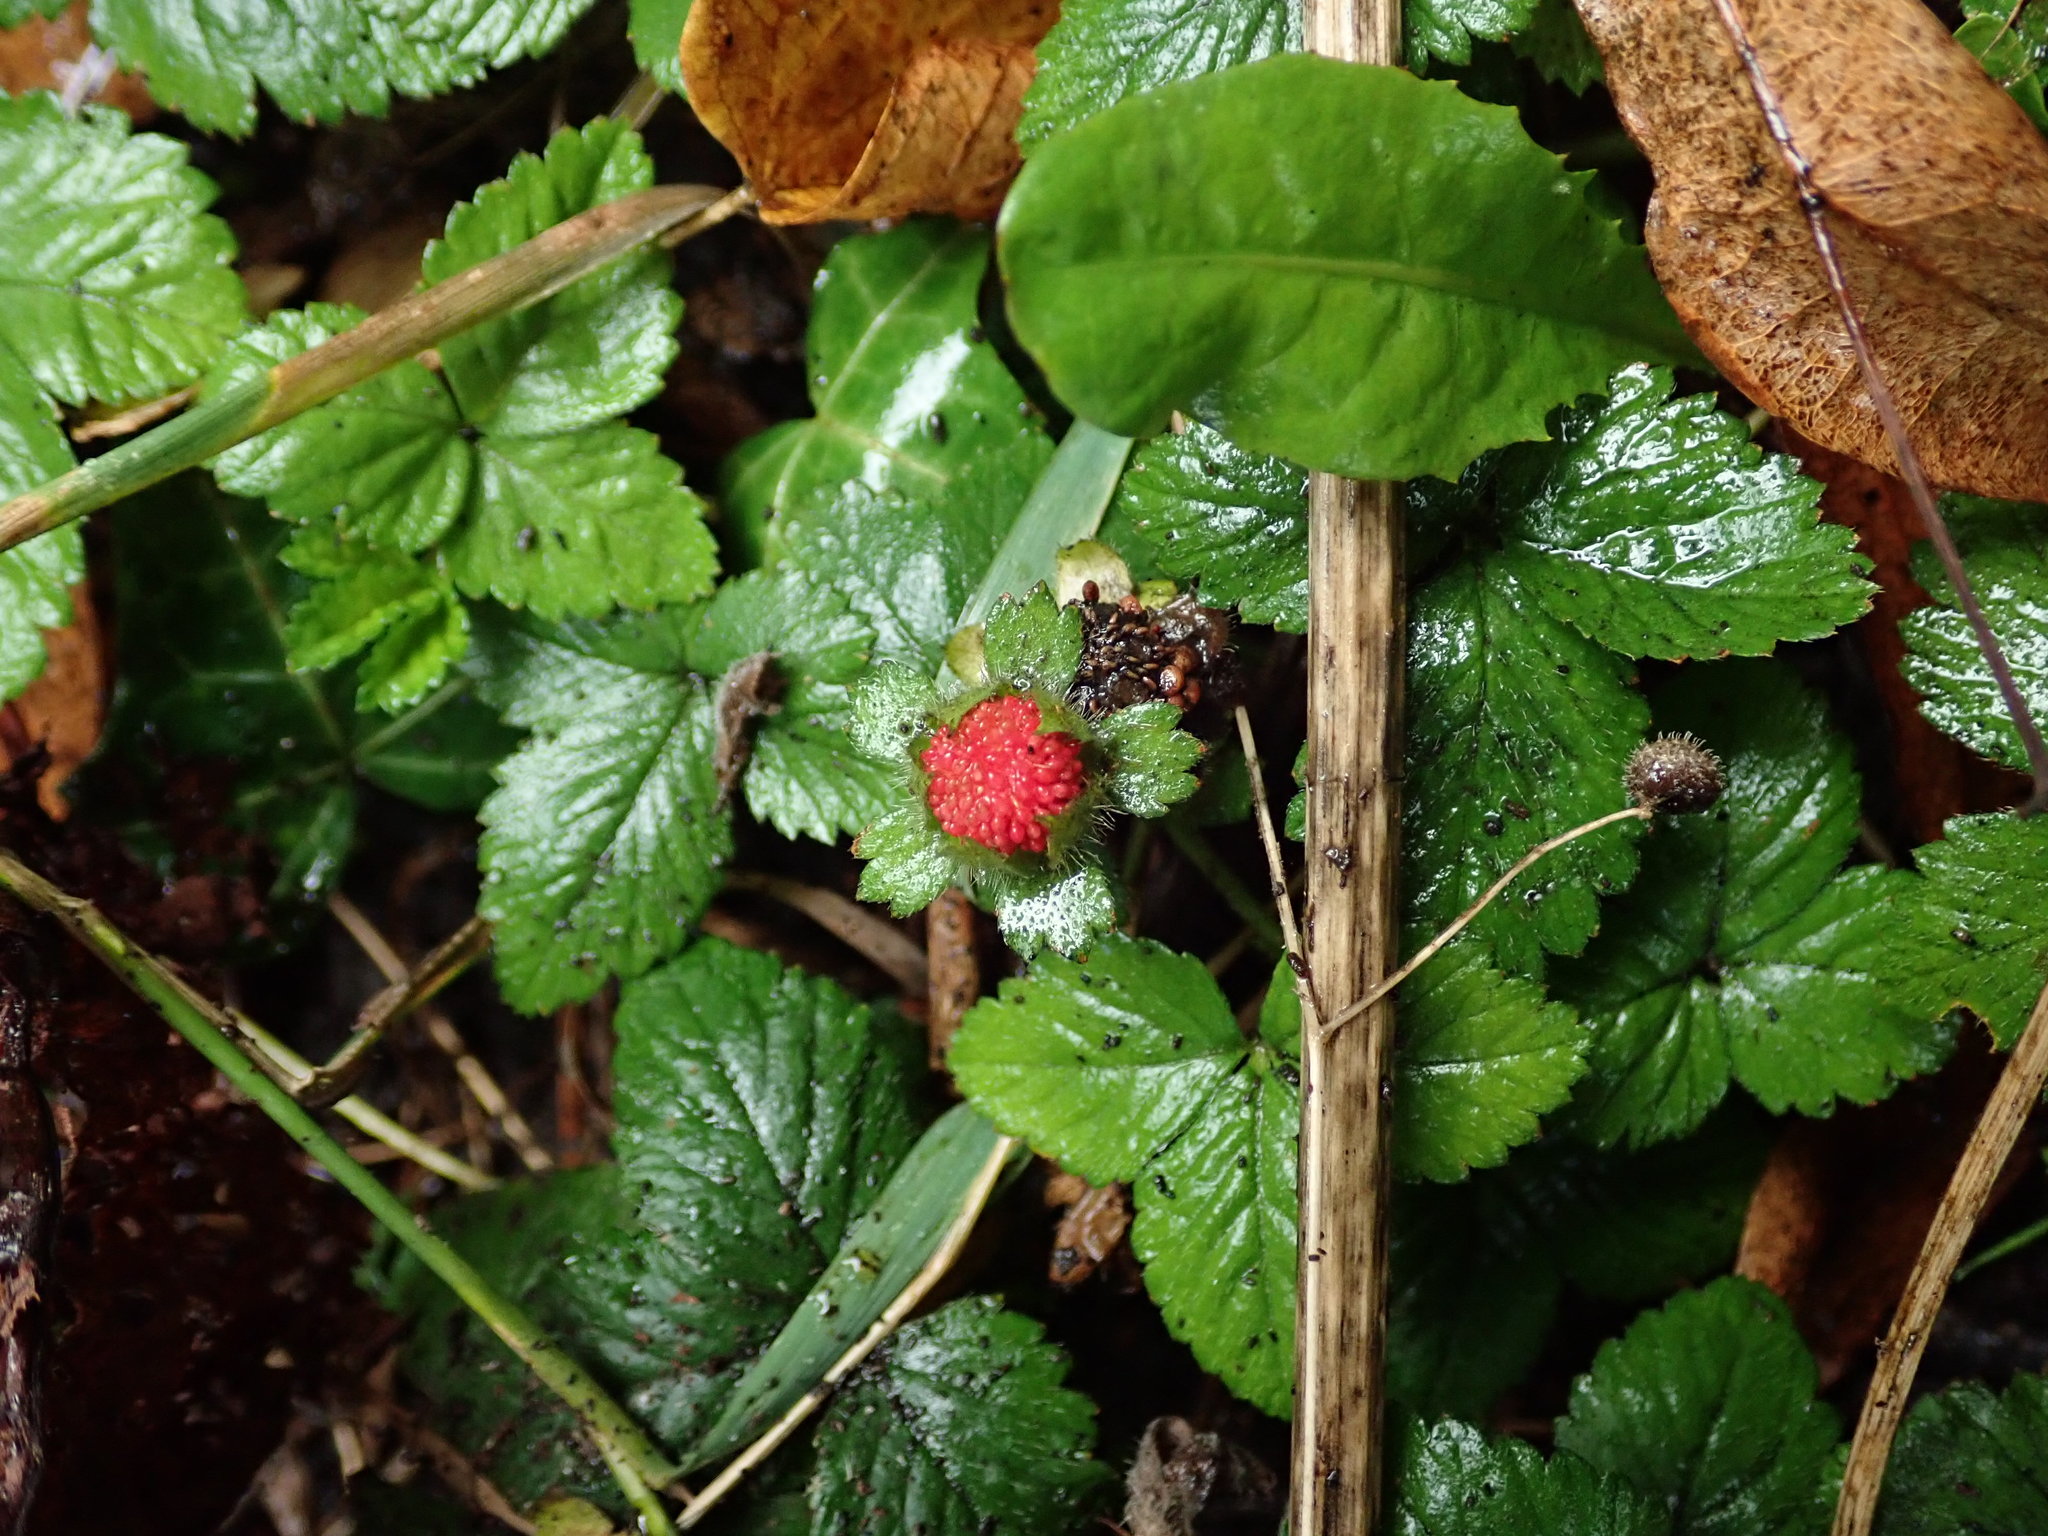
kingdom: Plantae
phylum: Tracheophyta
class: Magnoliopsida
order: Rosales
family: Rosaceae
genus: Potentilla
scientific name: Potentilla indica
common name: Yellow-flowered strawberry
